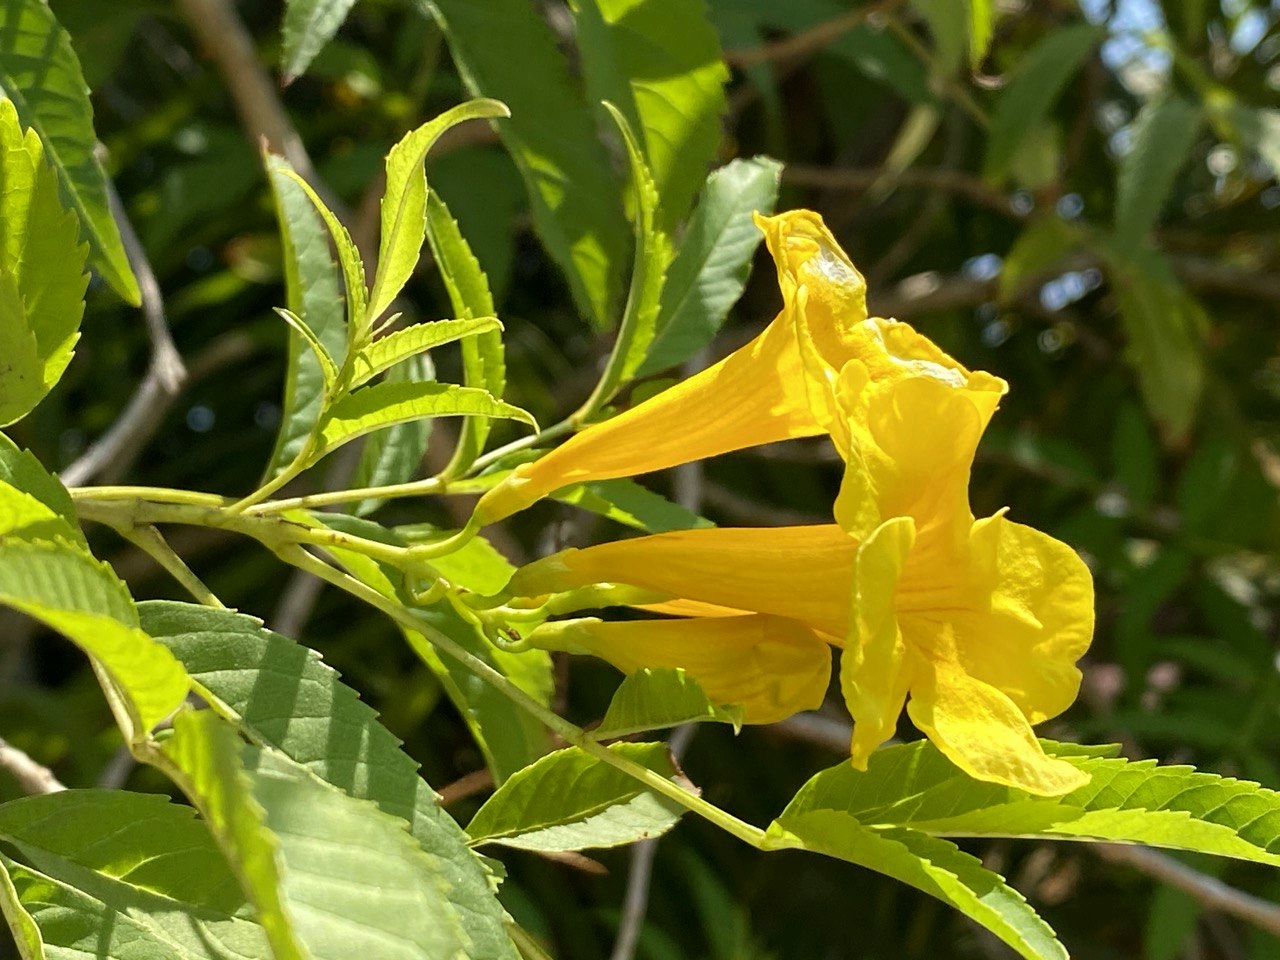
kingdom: Plantae
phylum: Tracheophyta
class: Magnoliopsida
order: Lamiales
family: Bignoniaceae
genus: Tecoma
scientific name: Tecoma stans
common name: Yellow trumpetbush
